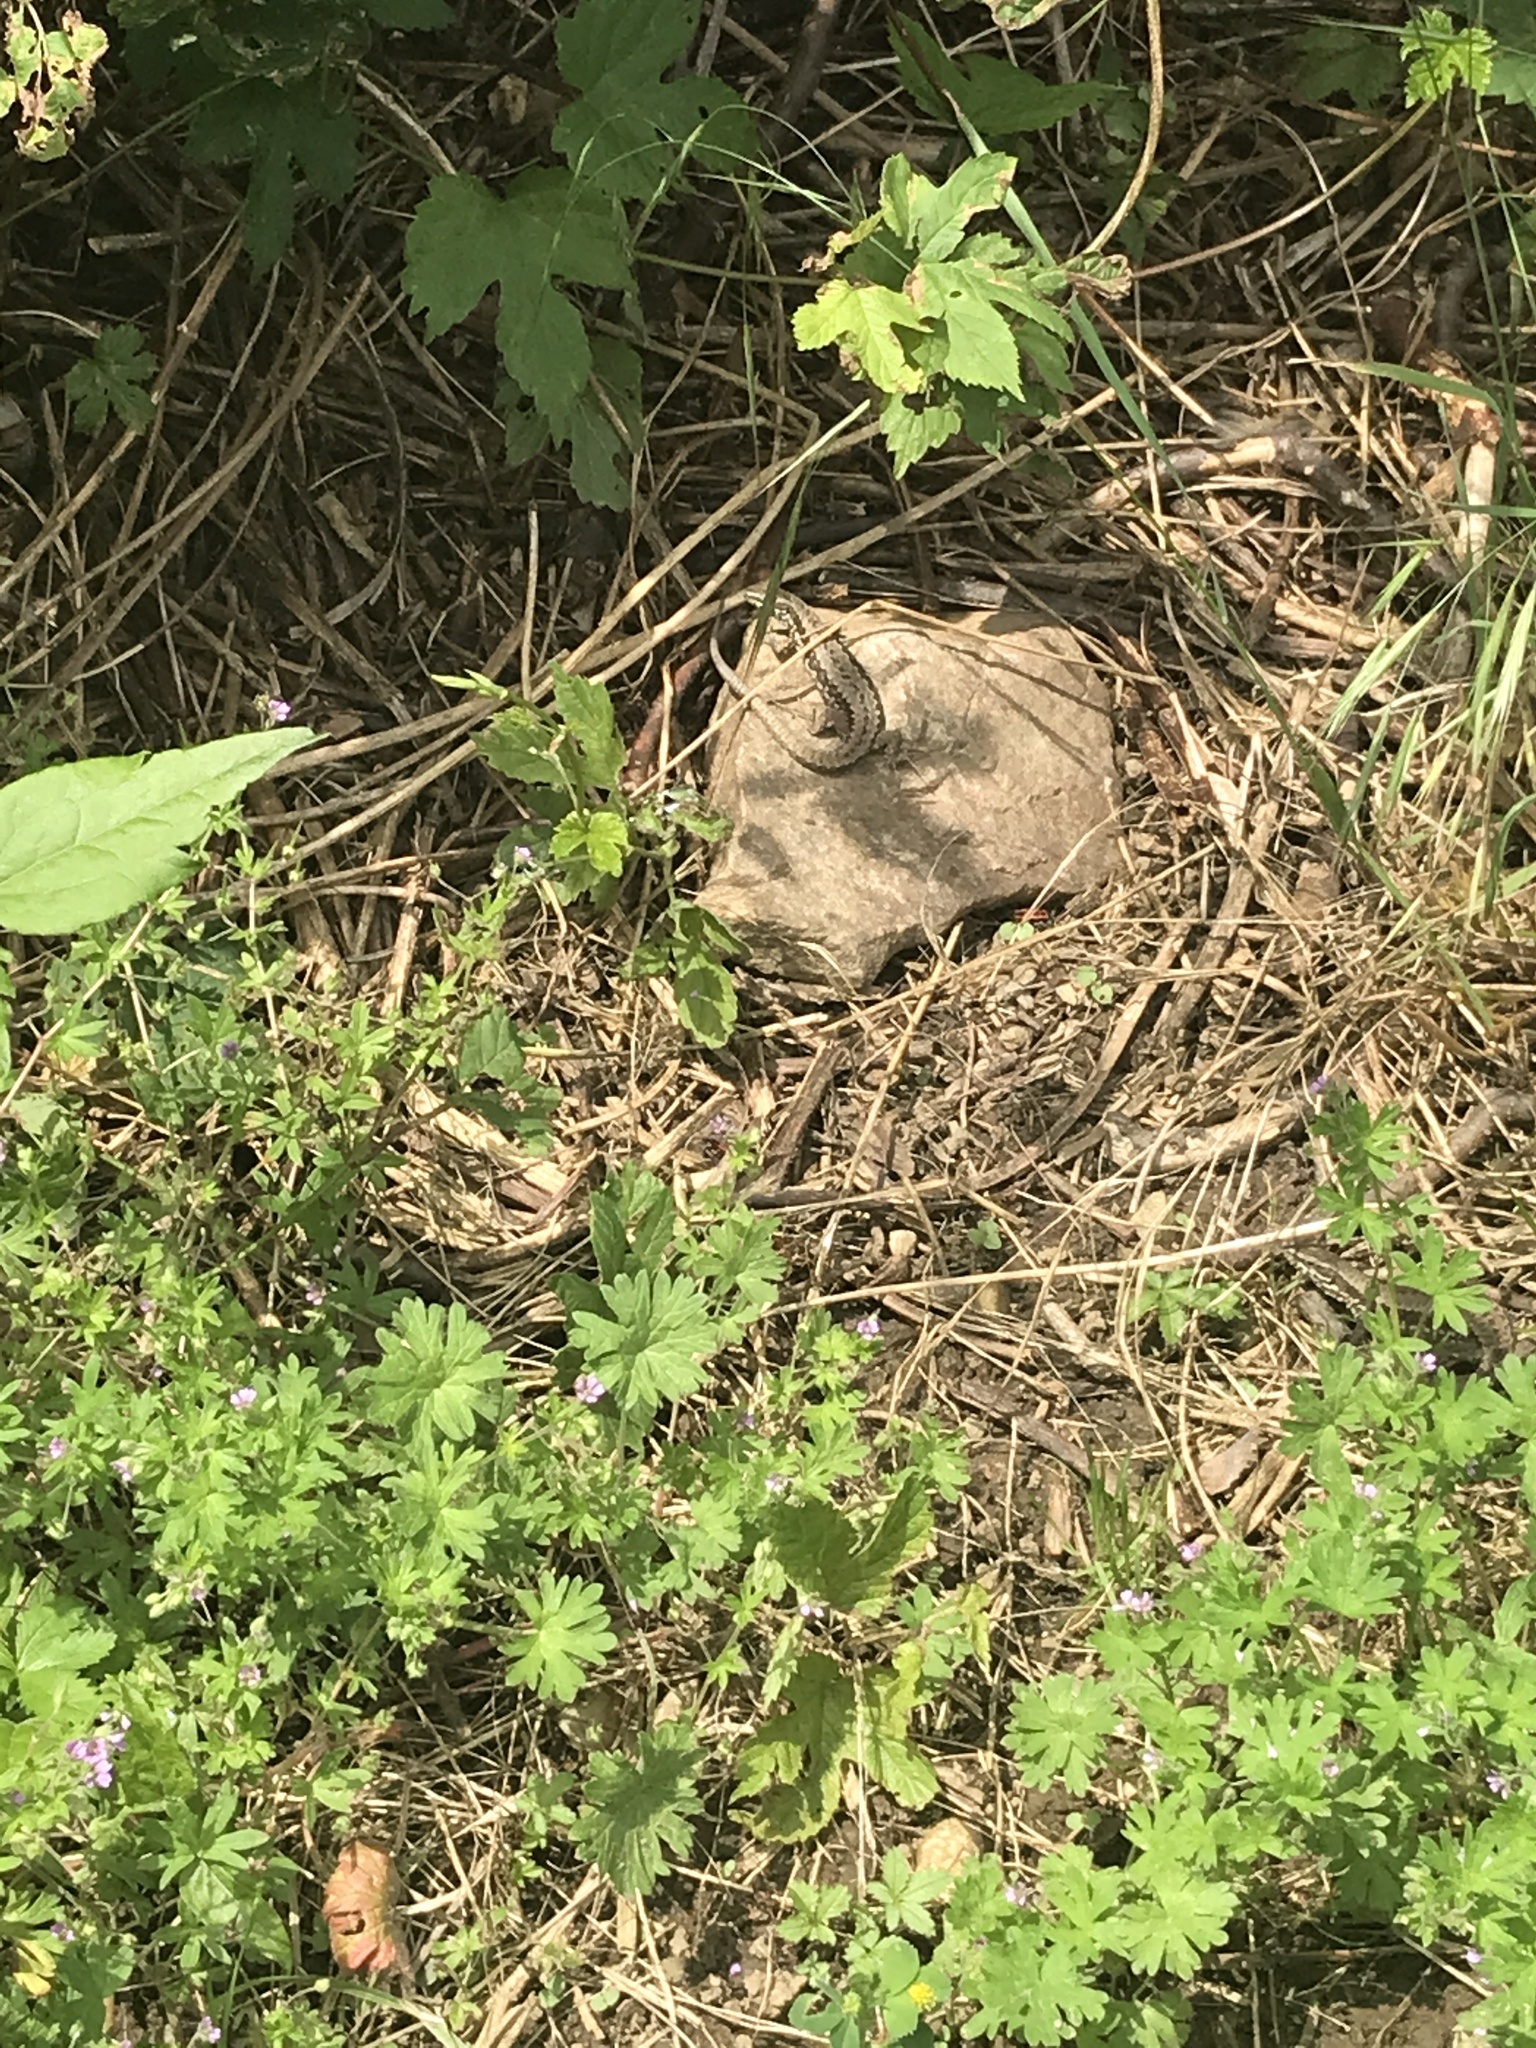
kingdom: Animalia
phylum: Chordata
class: Squamata
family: Lacertidae
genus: Podarcis
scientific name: Podarcis muralis
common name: Common wall lizard
